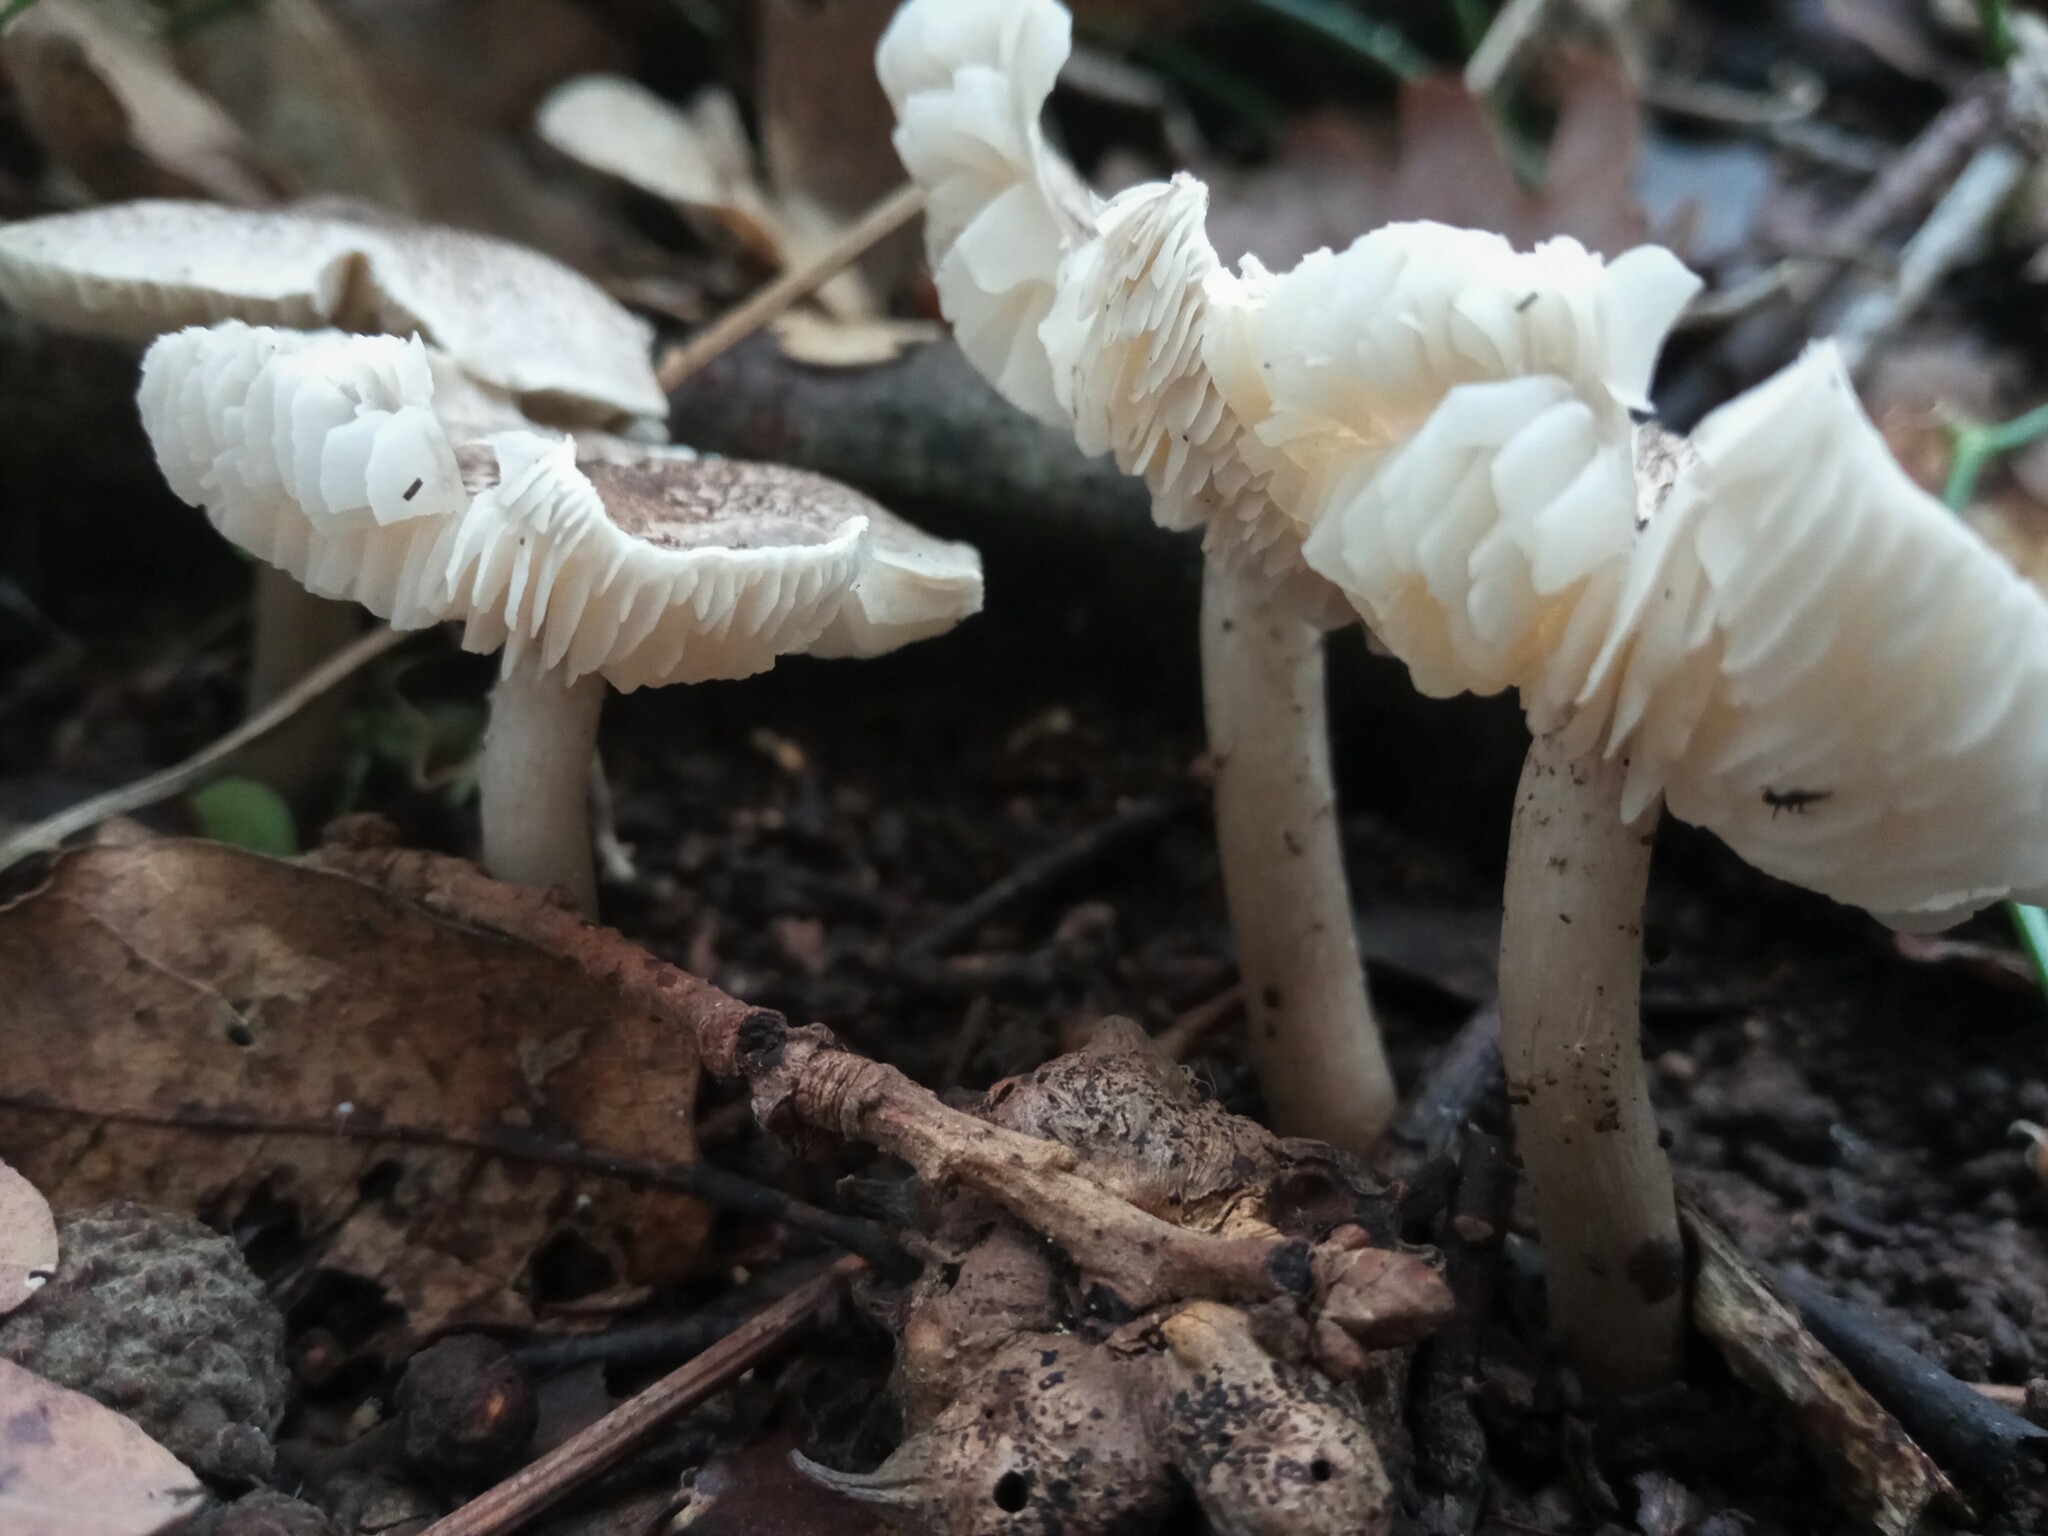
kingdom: Fungi
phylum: Basidiomycota
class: Agaricomycetes
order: Agaricales
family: Tricholomataceae
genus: Tricholoma
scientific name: Tricholoma scalpturatum
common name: Yellowing knight
